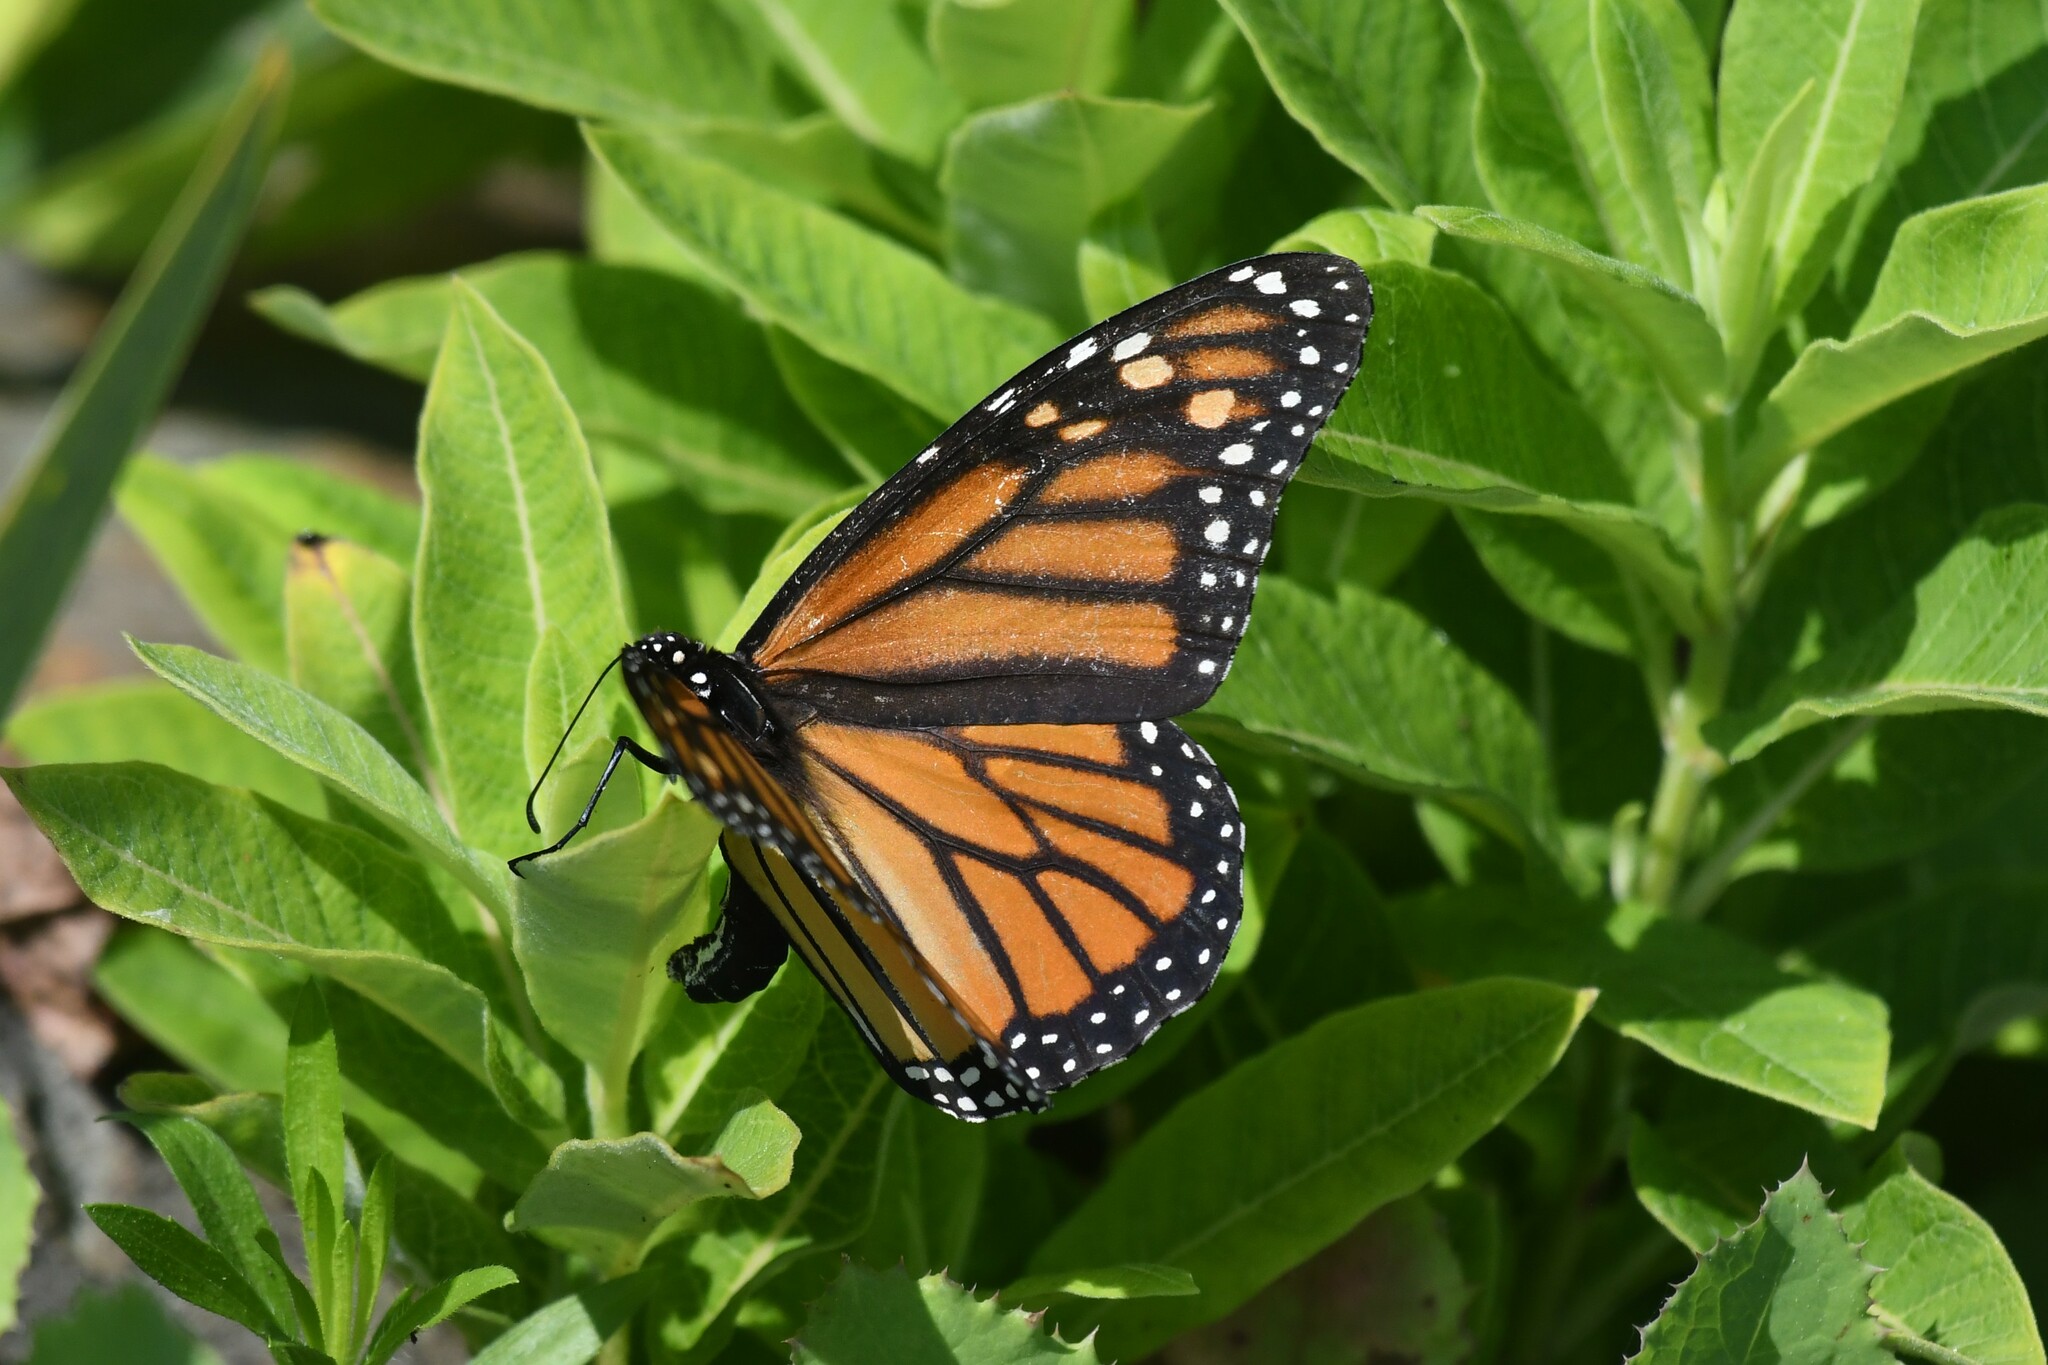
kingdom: Animalia
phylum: Arthropoda
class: Insecta
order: Lepidoptera
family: Nymphalidae
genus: Danaus
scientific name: Danaus plexippus
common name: Monarch
